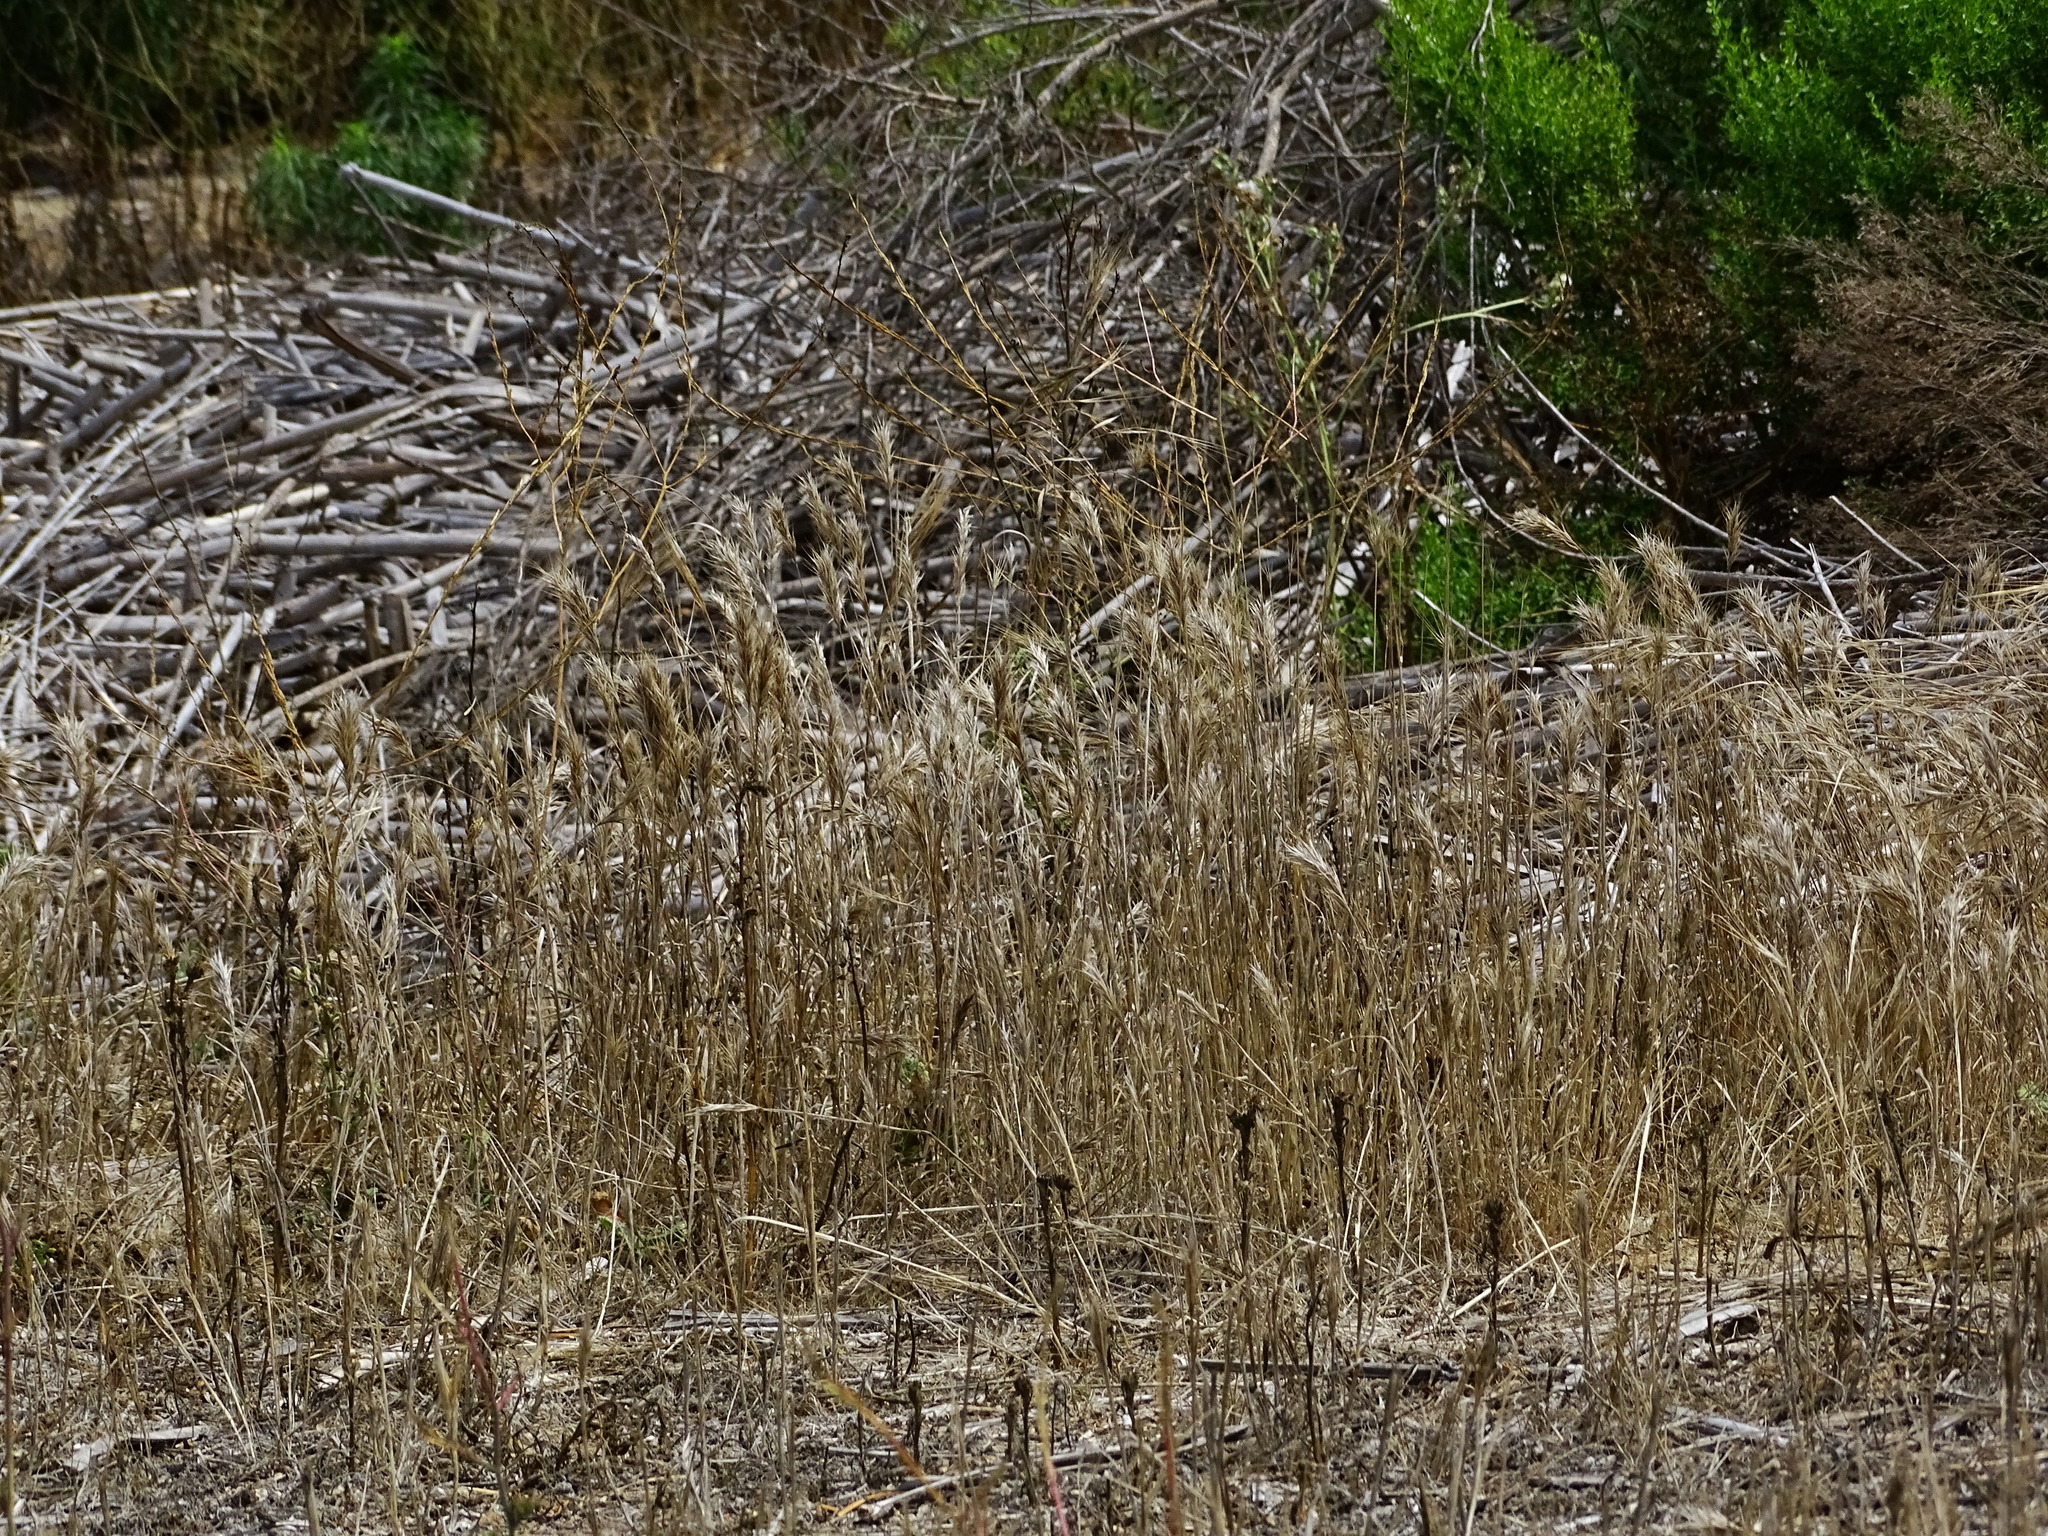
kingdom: Plantae
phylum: Tracheophyta
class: Liliopsida
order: Poales
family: Poaceae
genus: Bromus
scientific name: Bromus madritensis
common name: Compact brome
